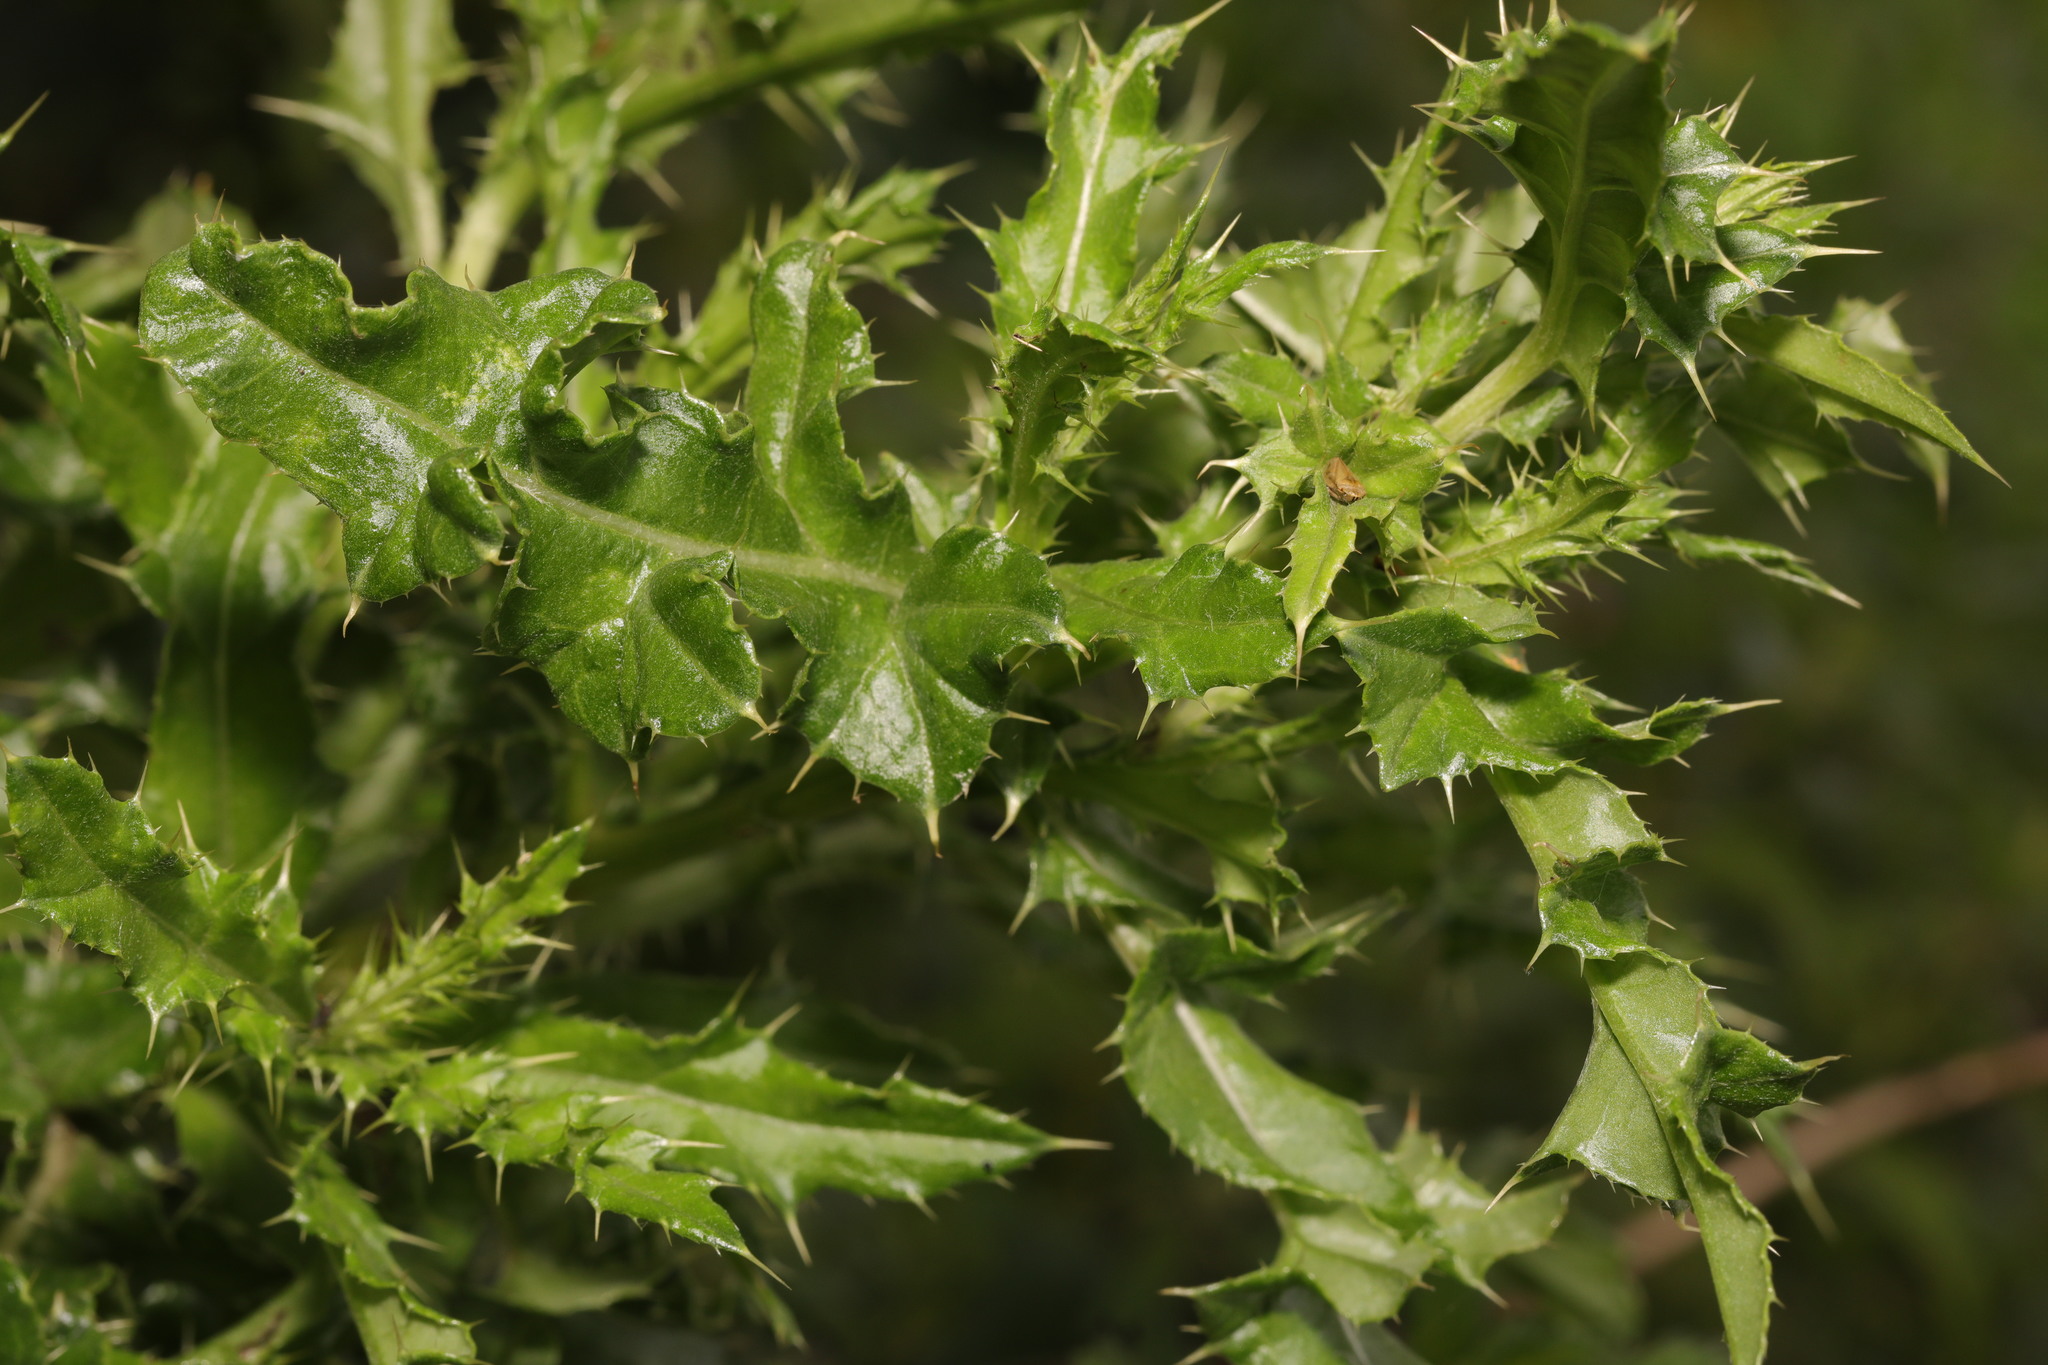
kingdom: Plantae
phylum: Tracheophyta
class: Magnoliopsida
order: Asterales
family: Asteraceae
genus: Cirsium
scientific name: Cirsium arvense
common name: Creeping thistle
